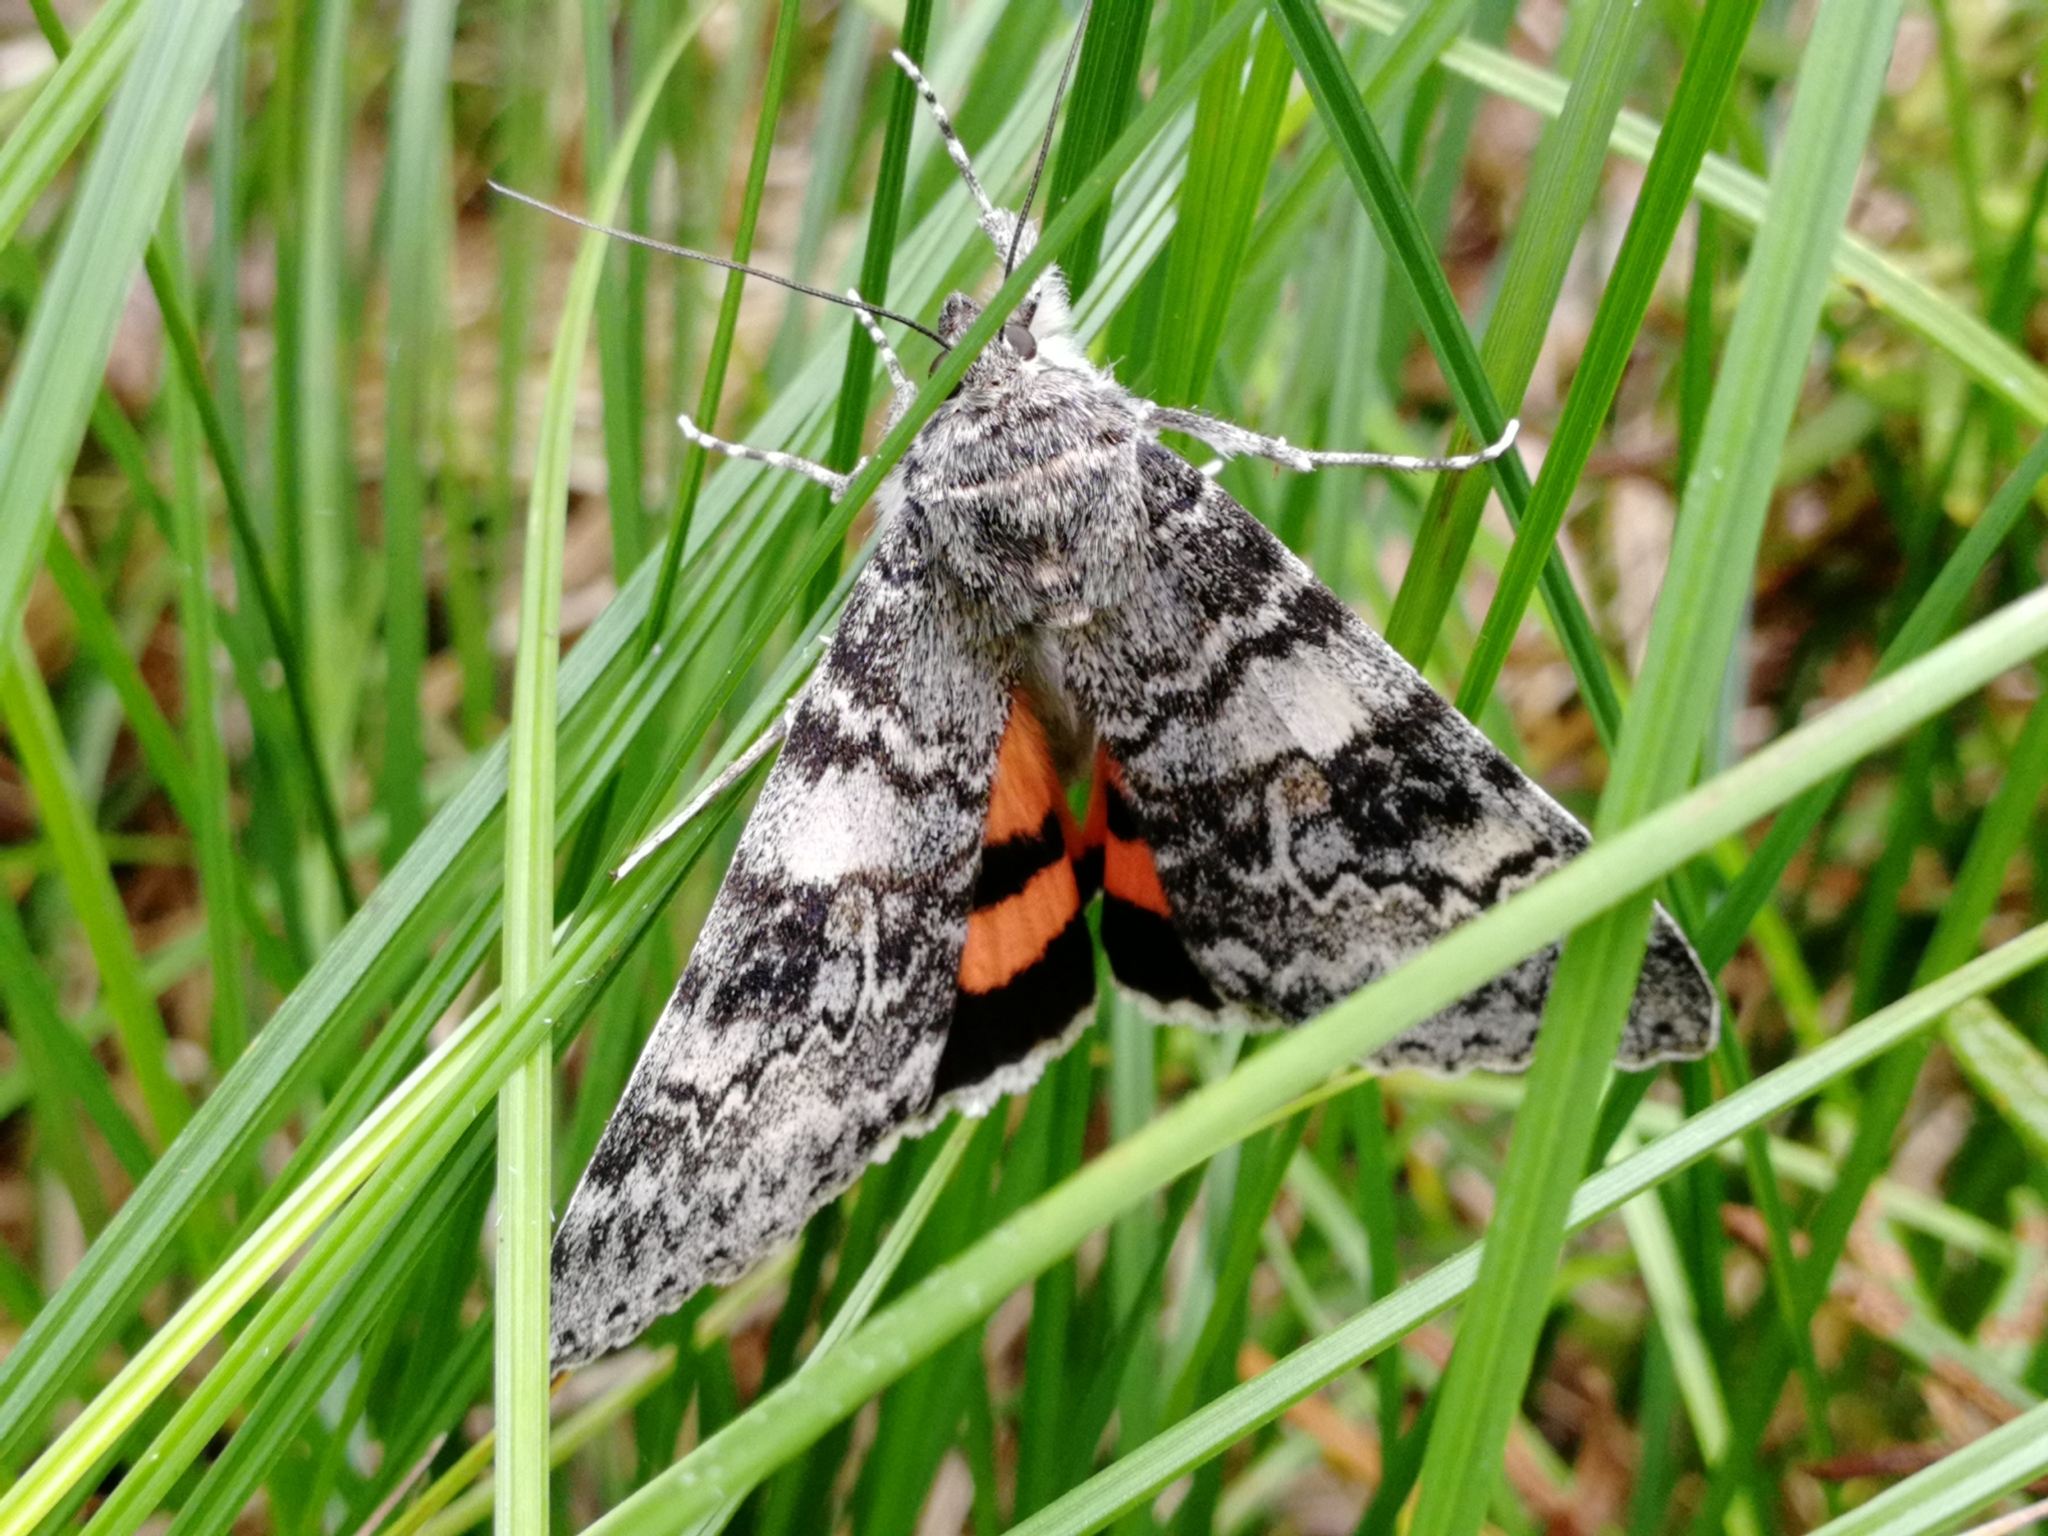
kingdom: Animalia
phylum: Arthropoda
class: Insecta
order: Lepidoptera
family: Erebidae
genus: Catocala
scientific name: Catocala adultera
